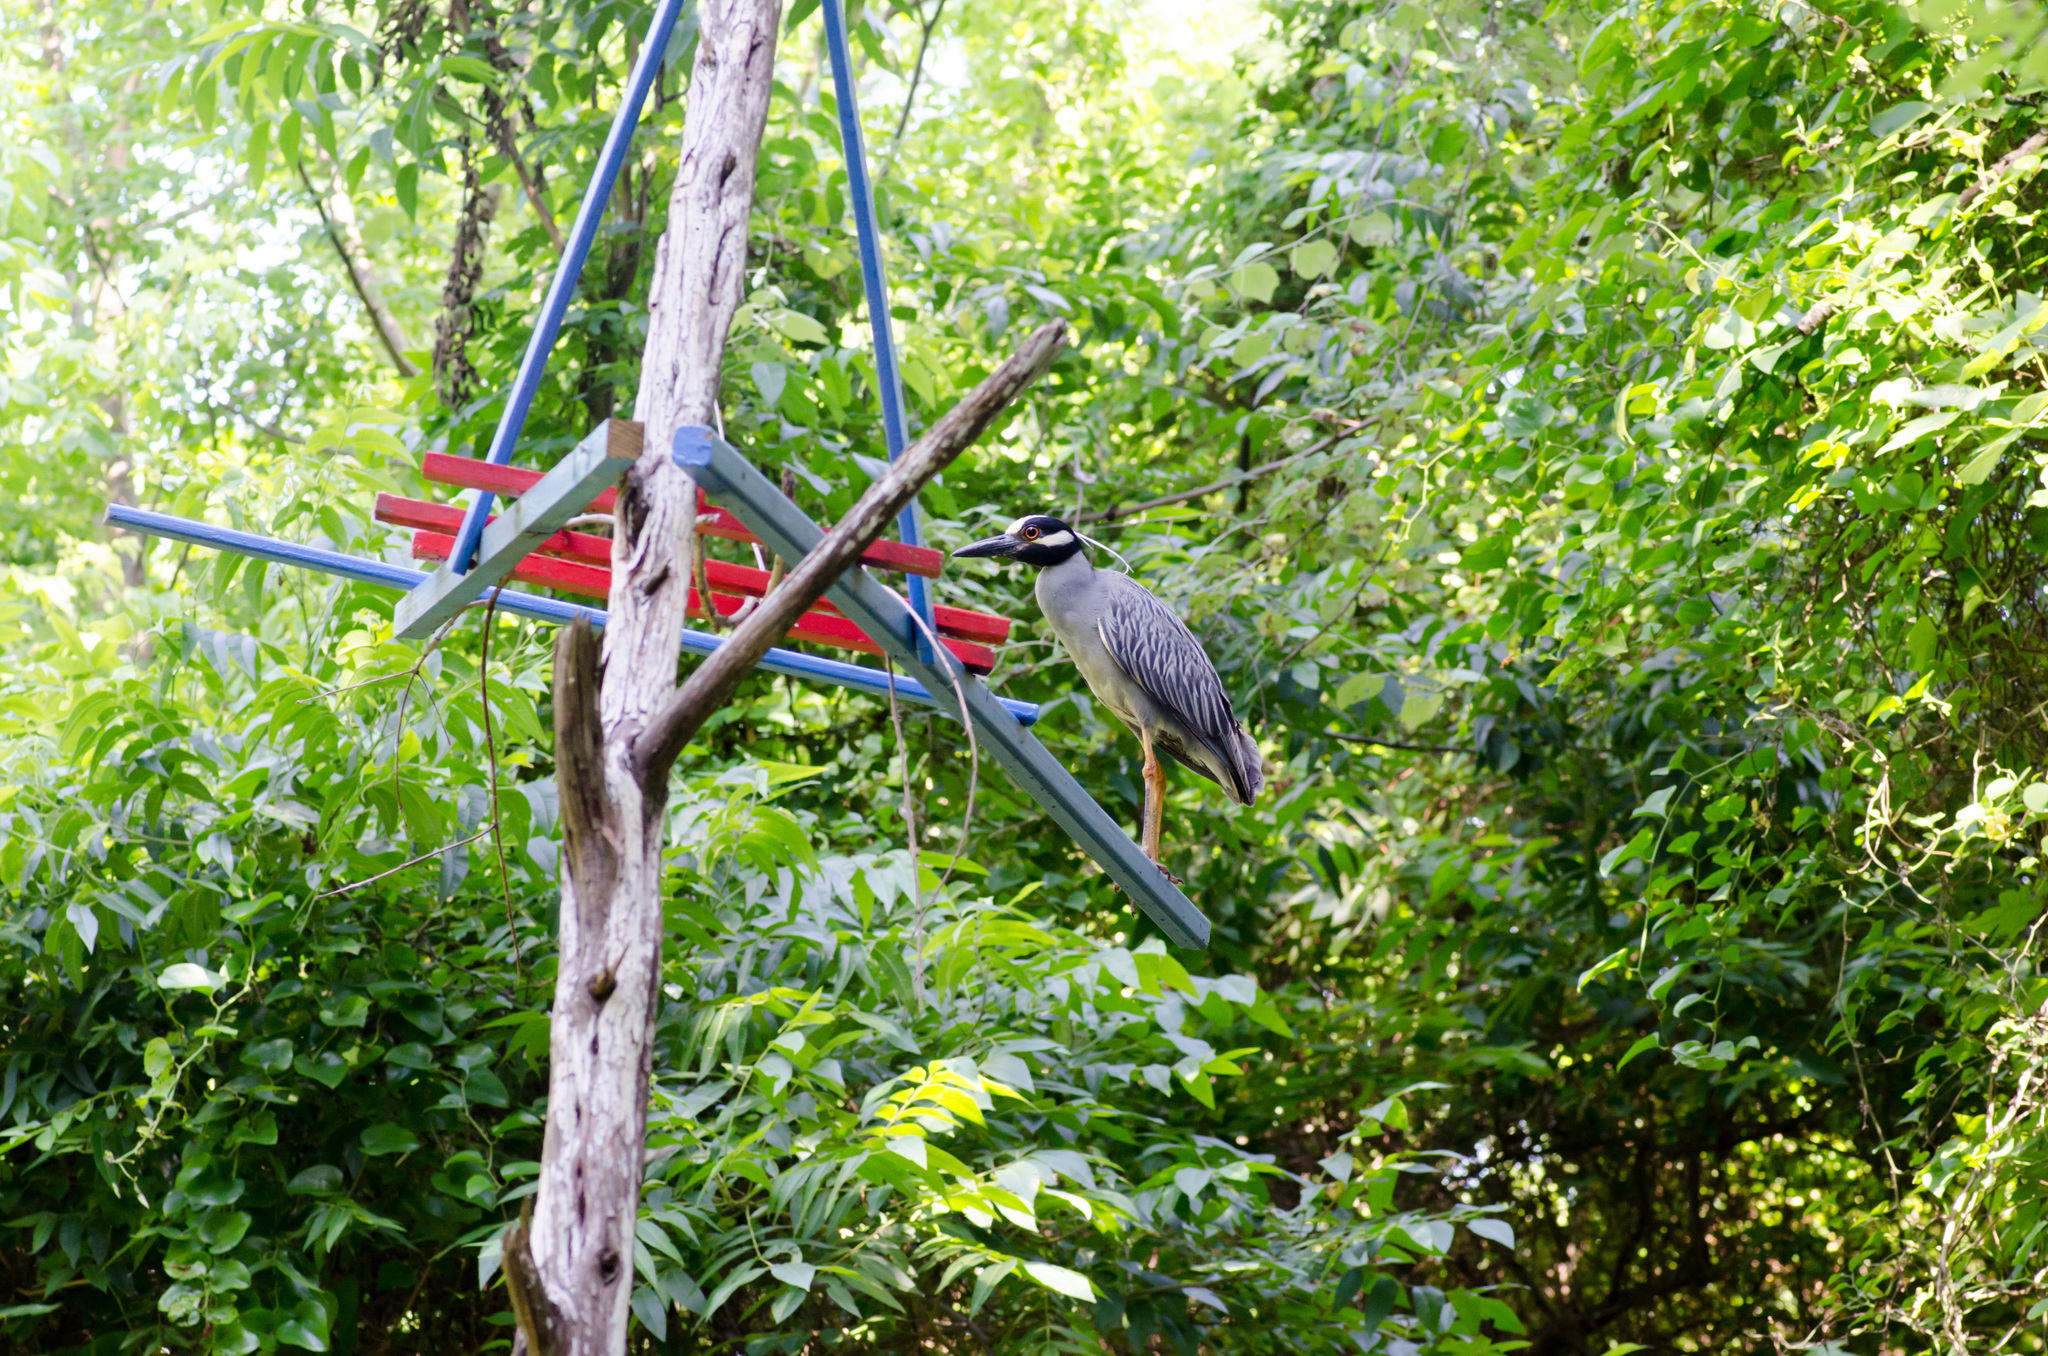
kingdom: Animalia
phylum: Chordata
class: Aves
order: Pelecaniformes
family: Ardeidae
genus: Nyctanassa
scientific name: Nyctanassa violacea
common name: Yellow-crowned night heron
